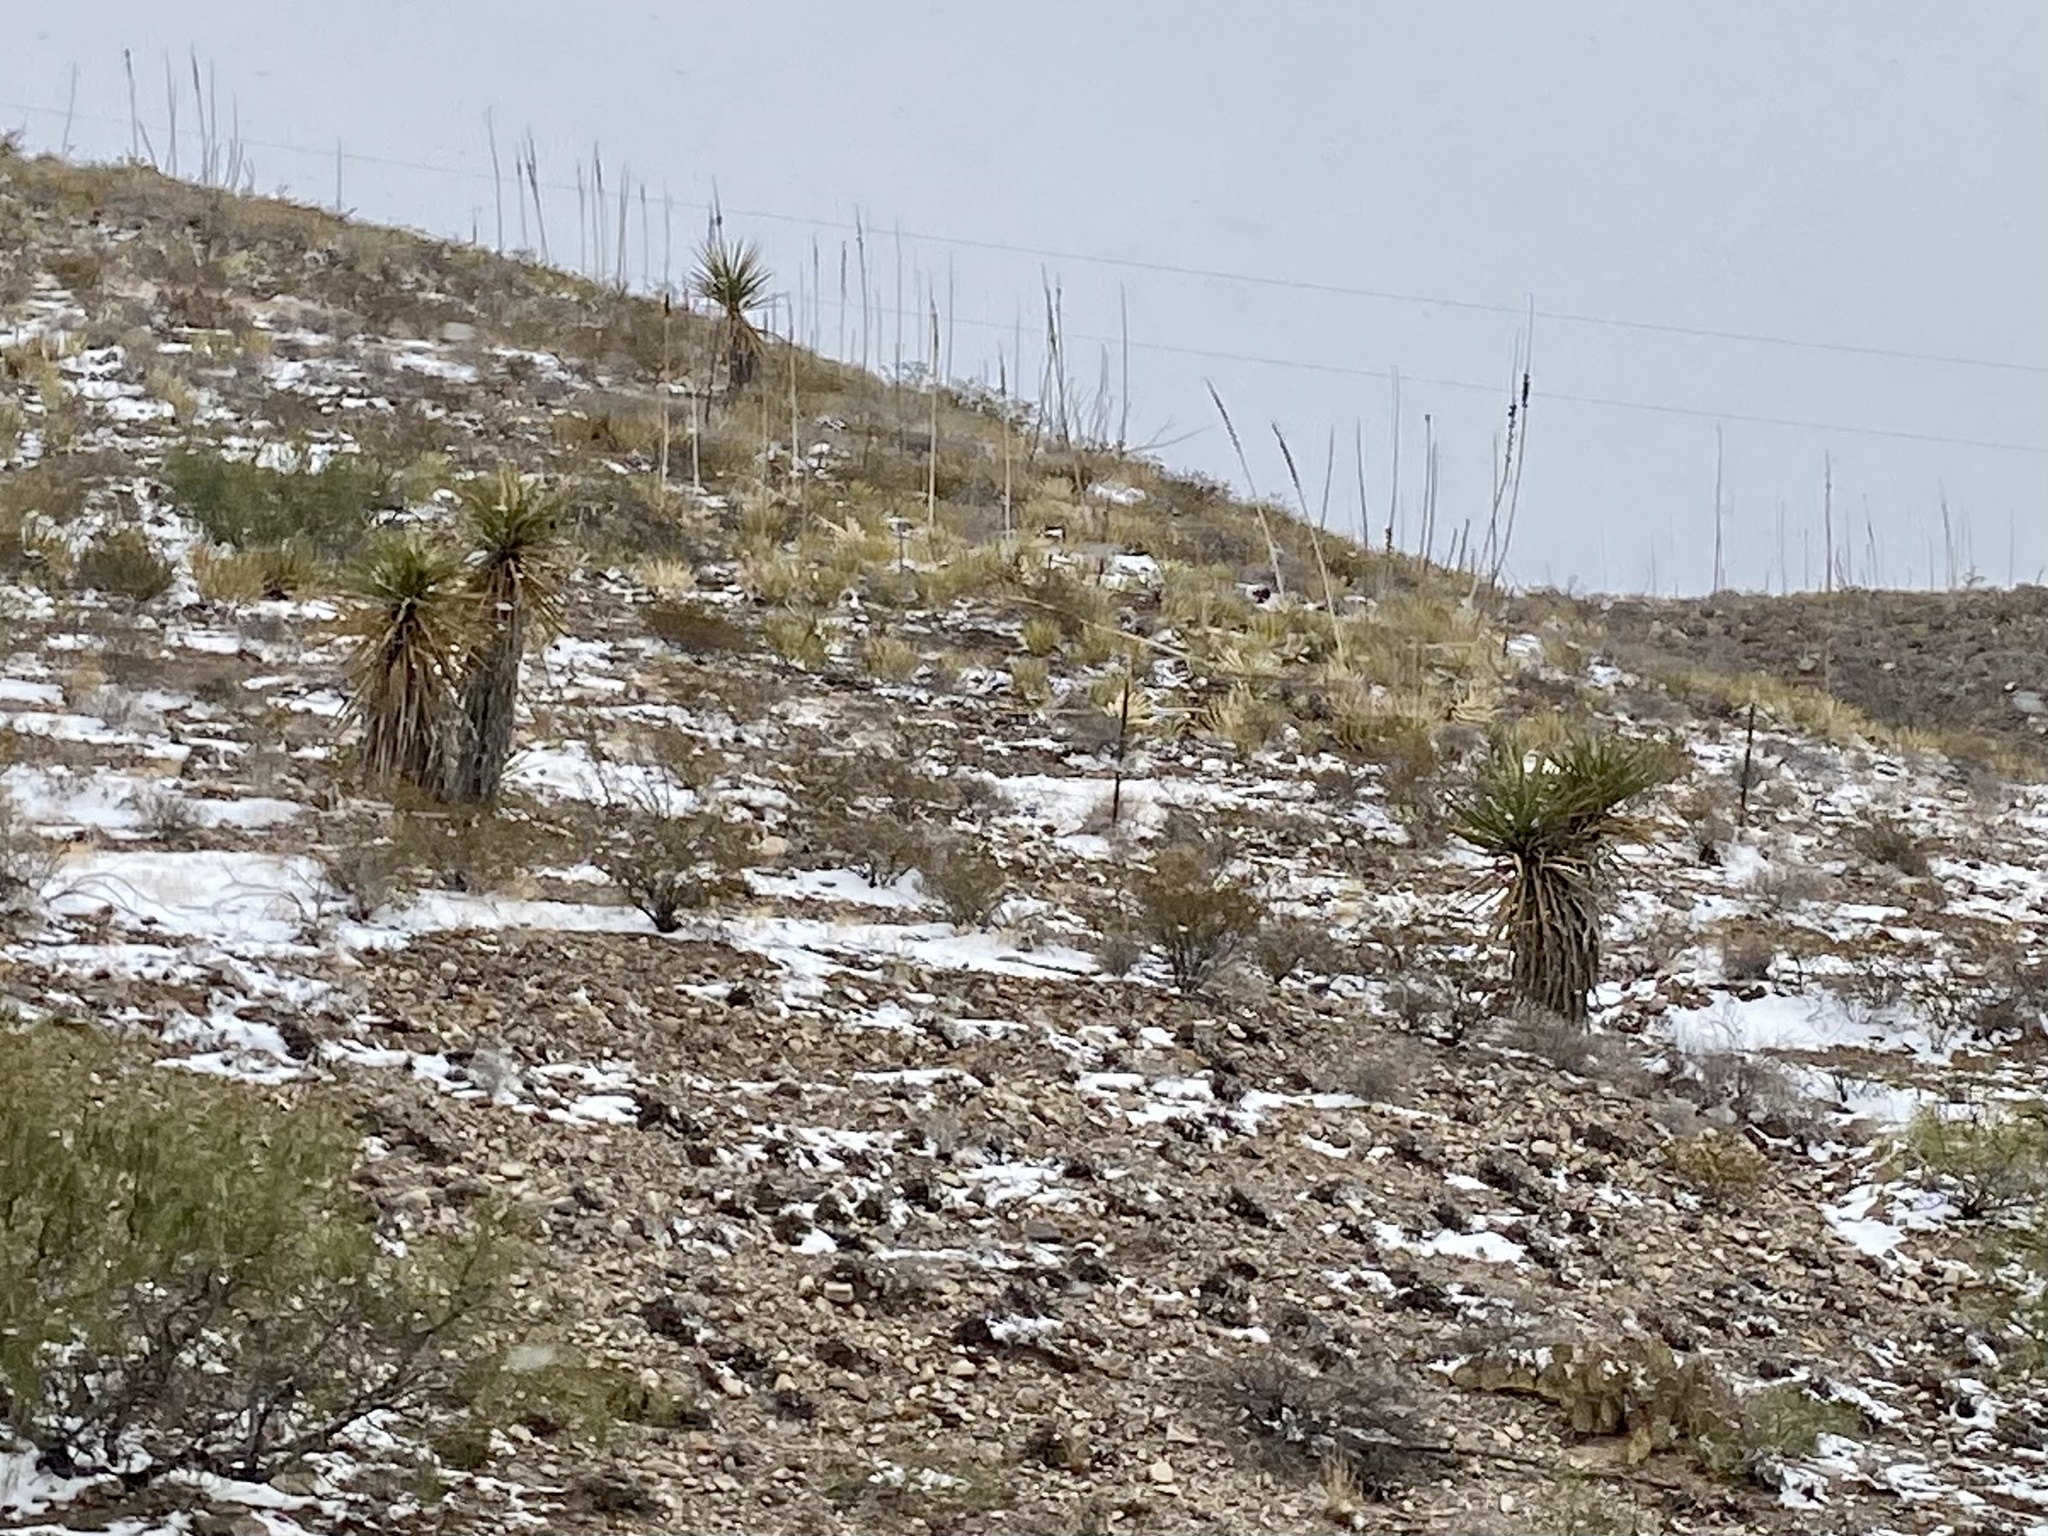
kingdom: Plantae
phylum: Tracheophyta
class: Liliopsida
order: Asparagales
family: Asparagaceae
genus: Yucca
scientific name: Yucca treculiana
